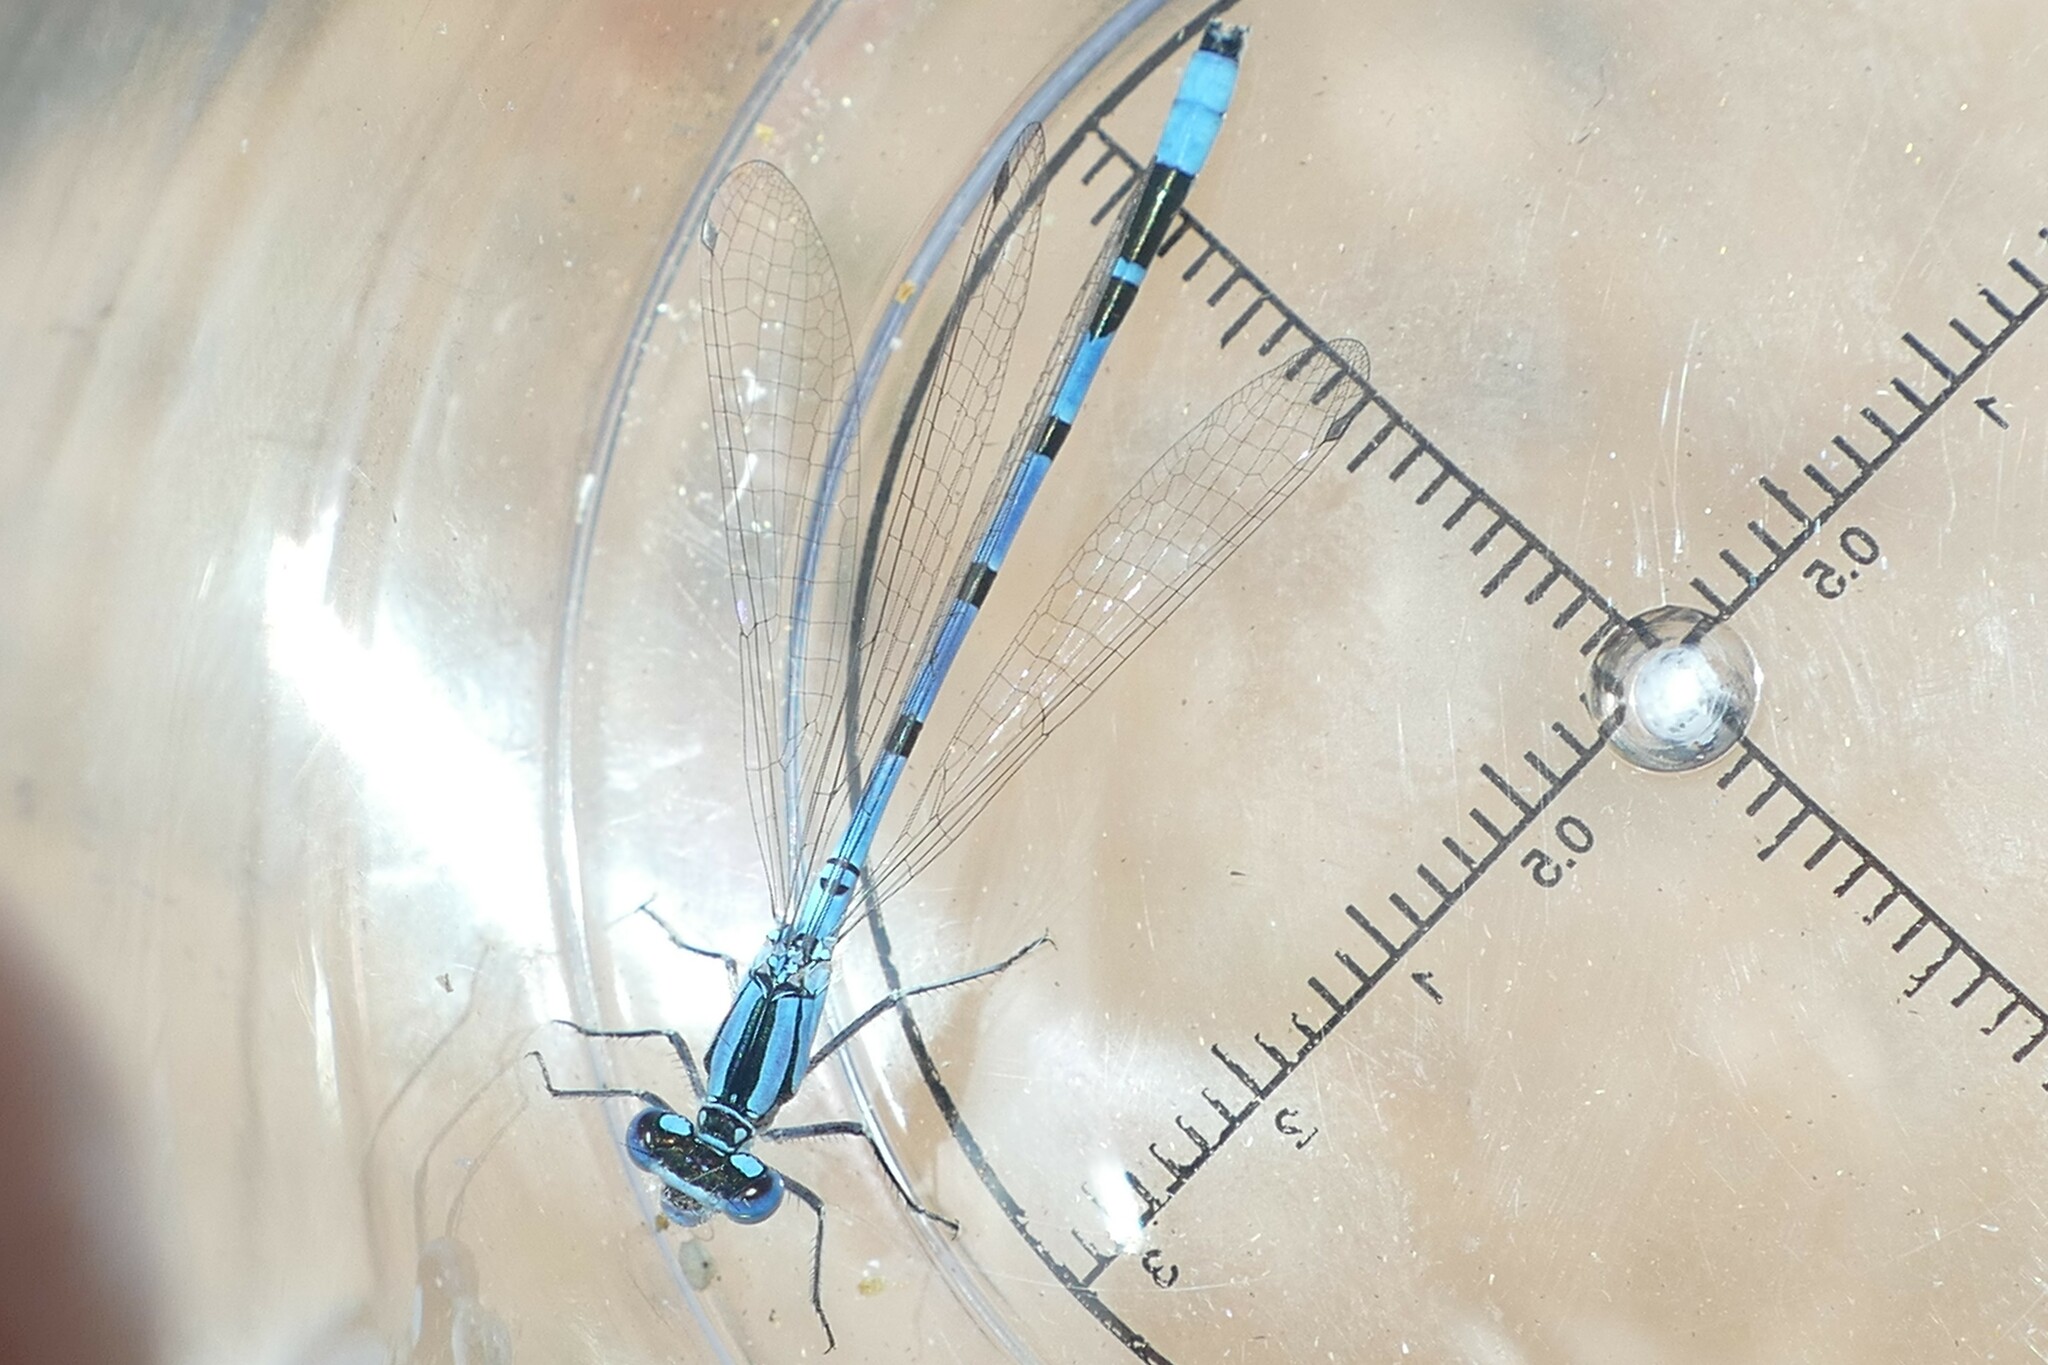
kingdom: Animalia
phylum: Arthropoda
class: Insecta
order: Odonata
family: Coenagrionidae
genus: Enallagma
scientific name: Enallagma cyathigerum
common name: Common blue damselfly
